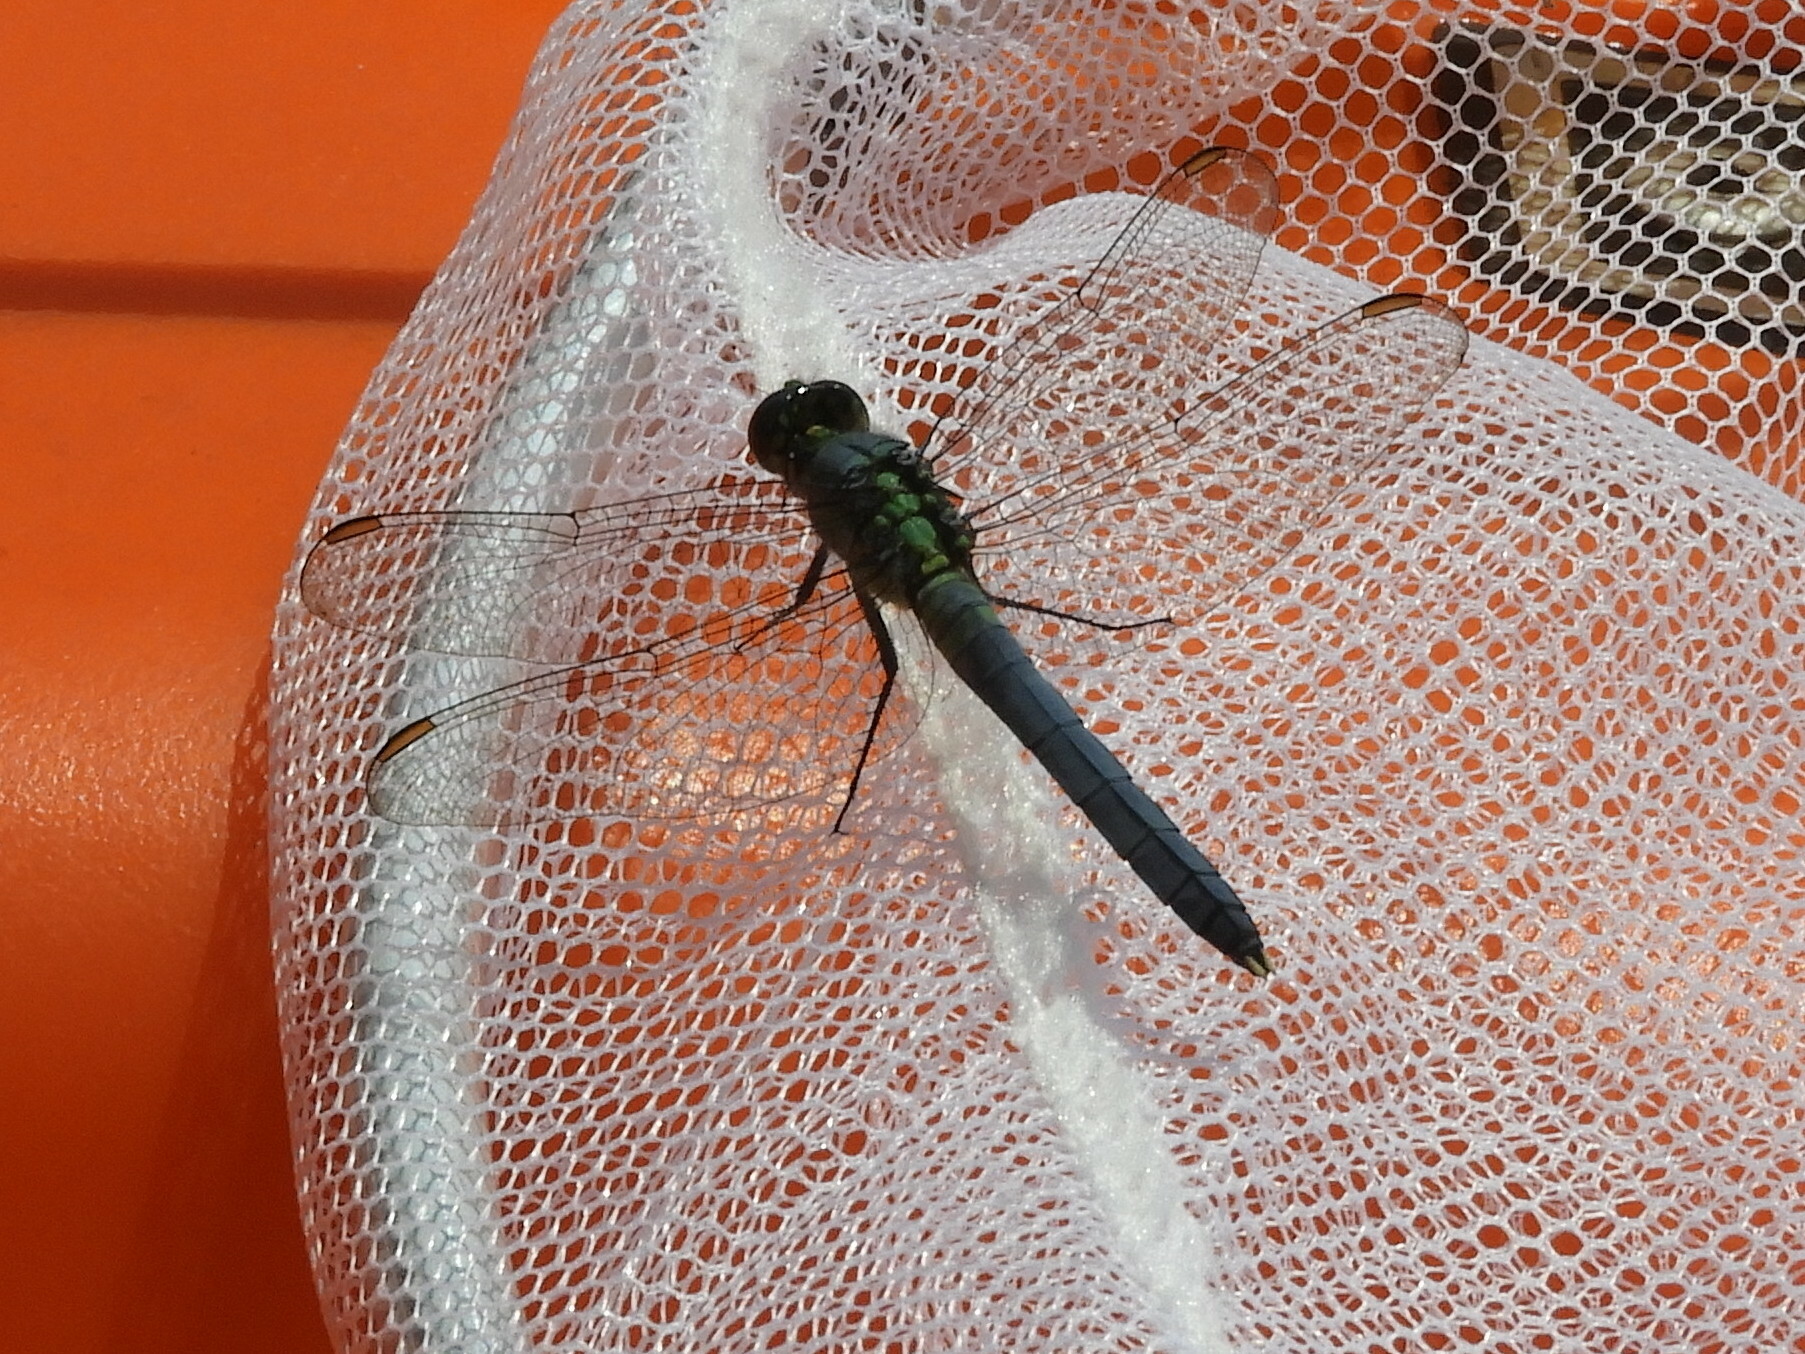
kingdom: Animalia
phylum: Arthropoda
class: Insecta
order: Odonata
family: Libellulidae
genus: Erythemis
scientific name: Erythemis simplicicollis
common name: Eastern pondhawk
